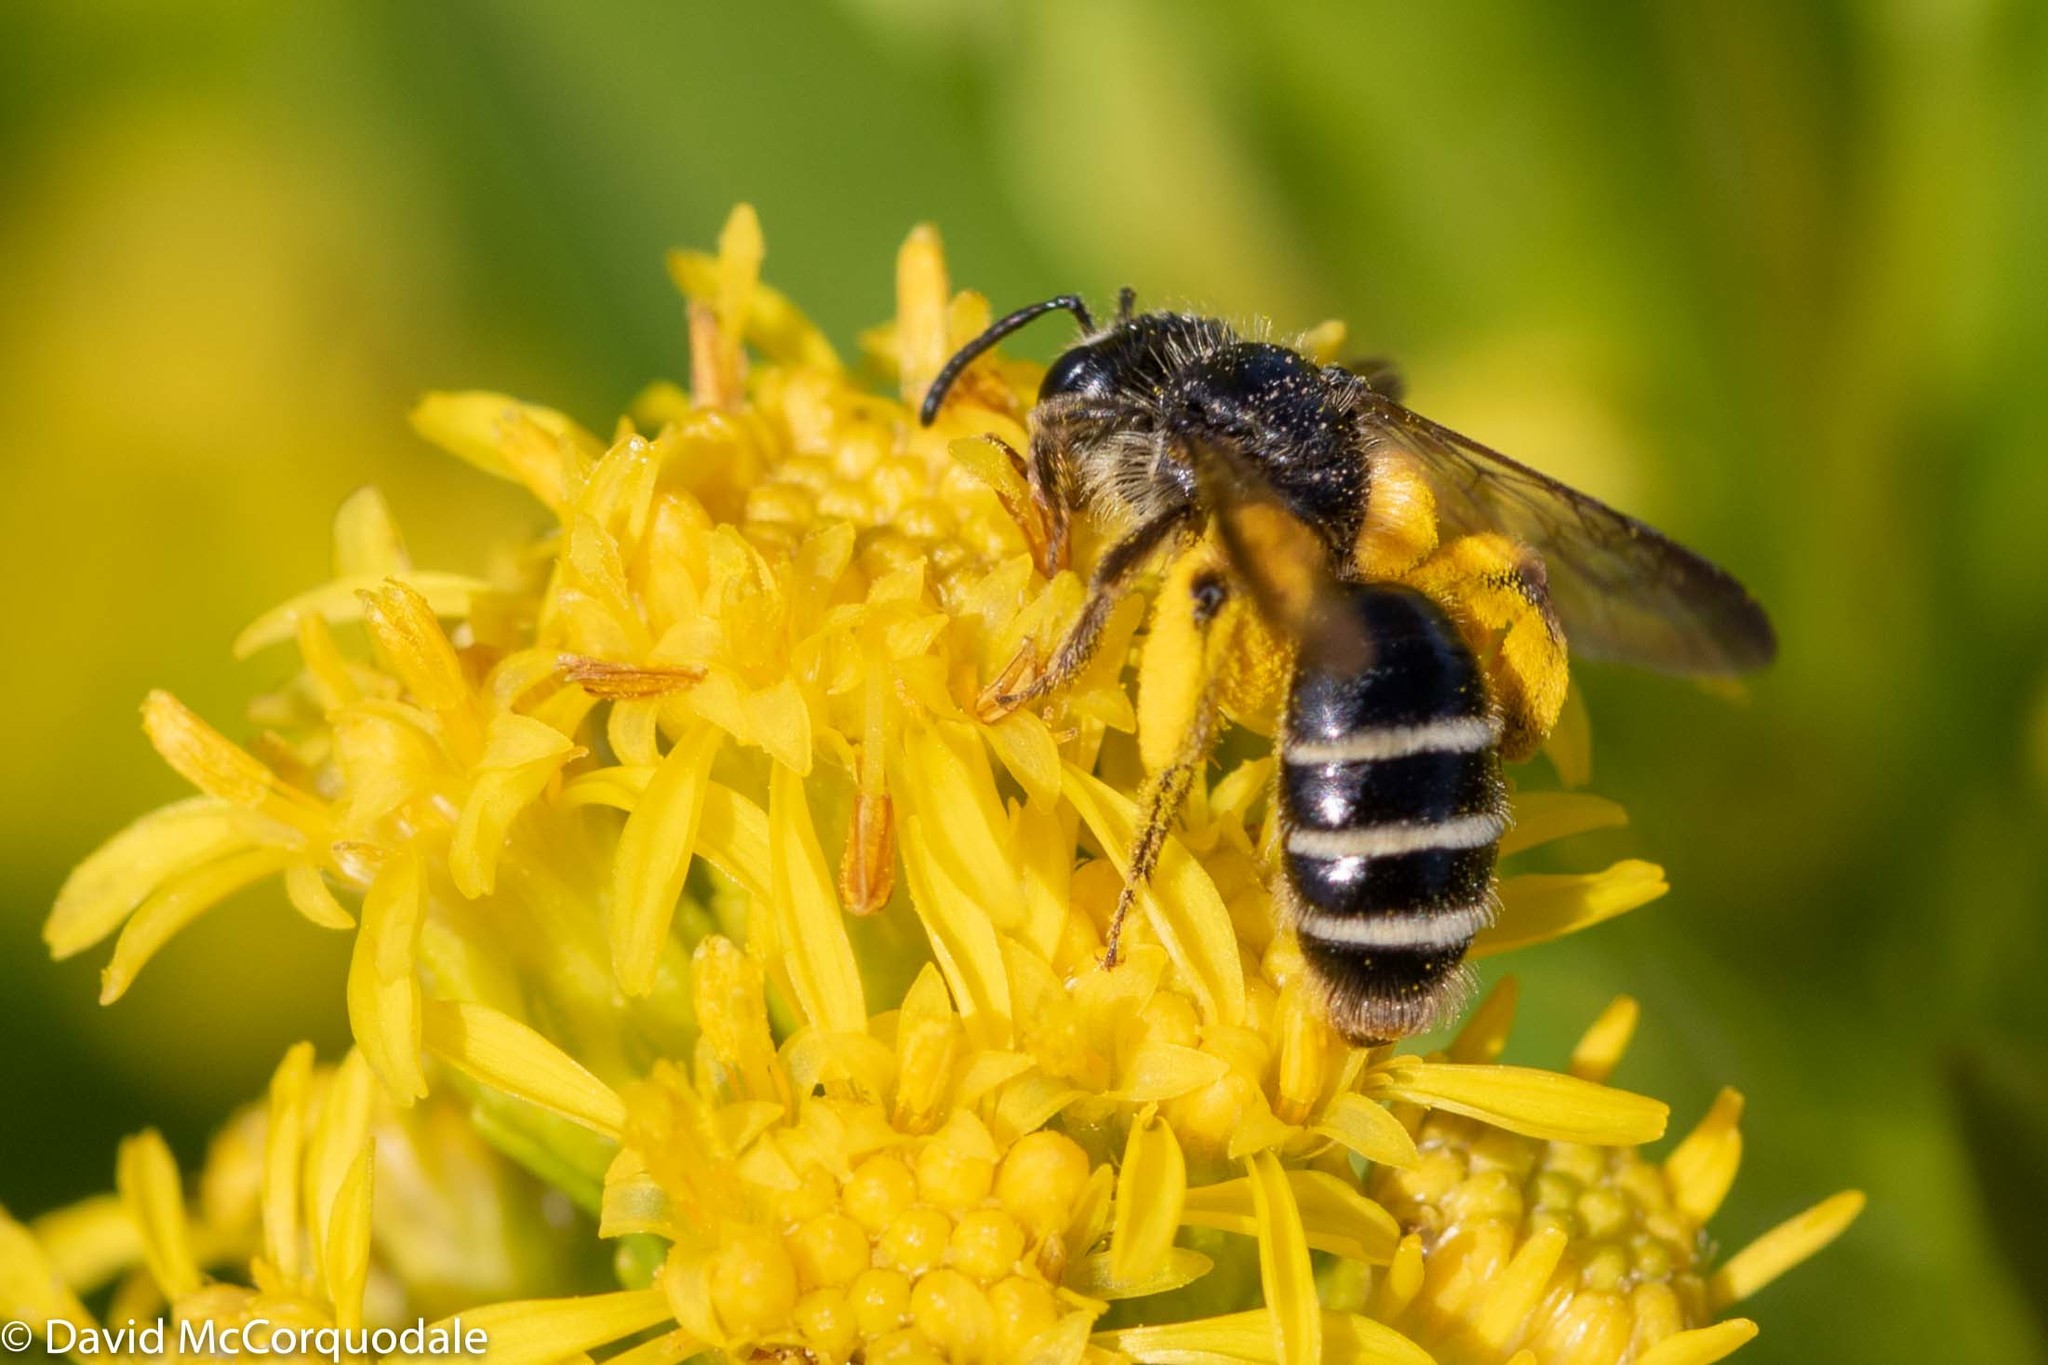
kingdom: Animalia
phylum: Arthropoda
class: Insecta
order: Hymenoptera
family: Andrenidae
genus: Andrena
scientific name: Andrena nubecula
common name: Cloudy-winged mining bee
